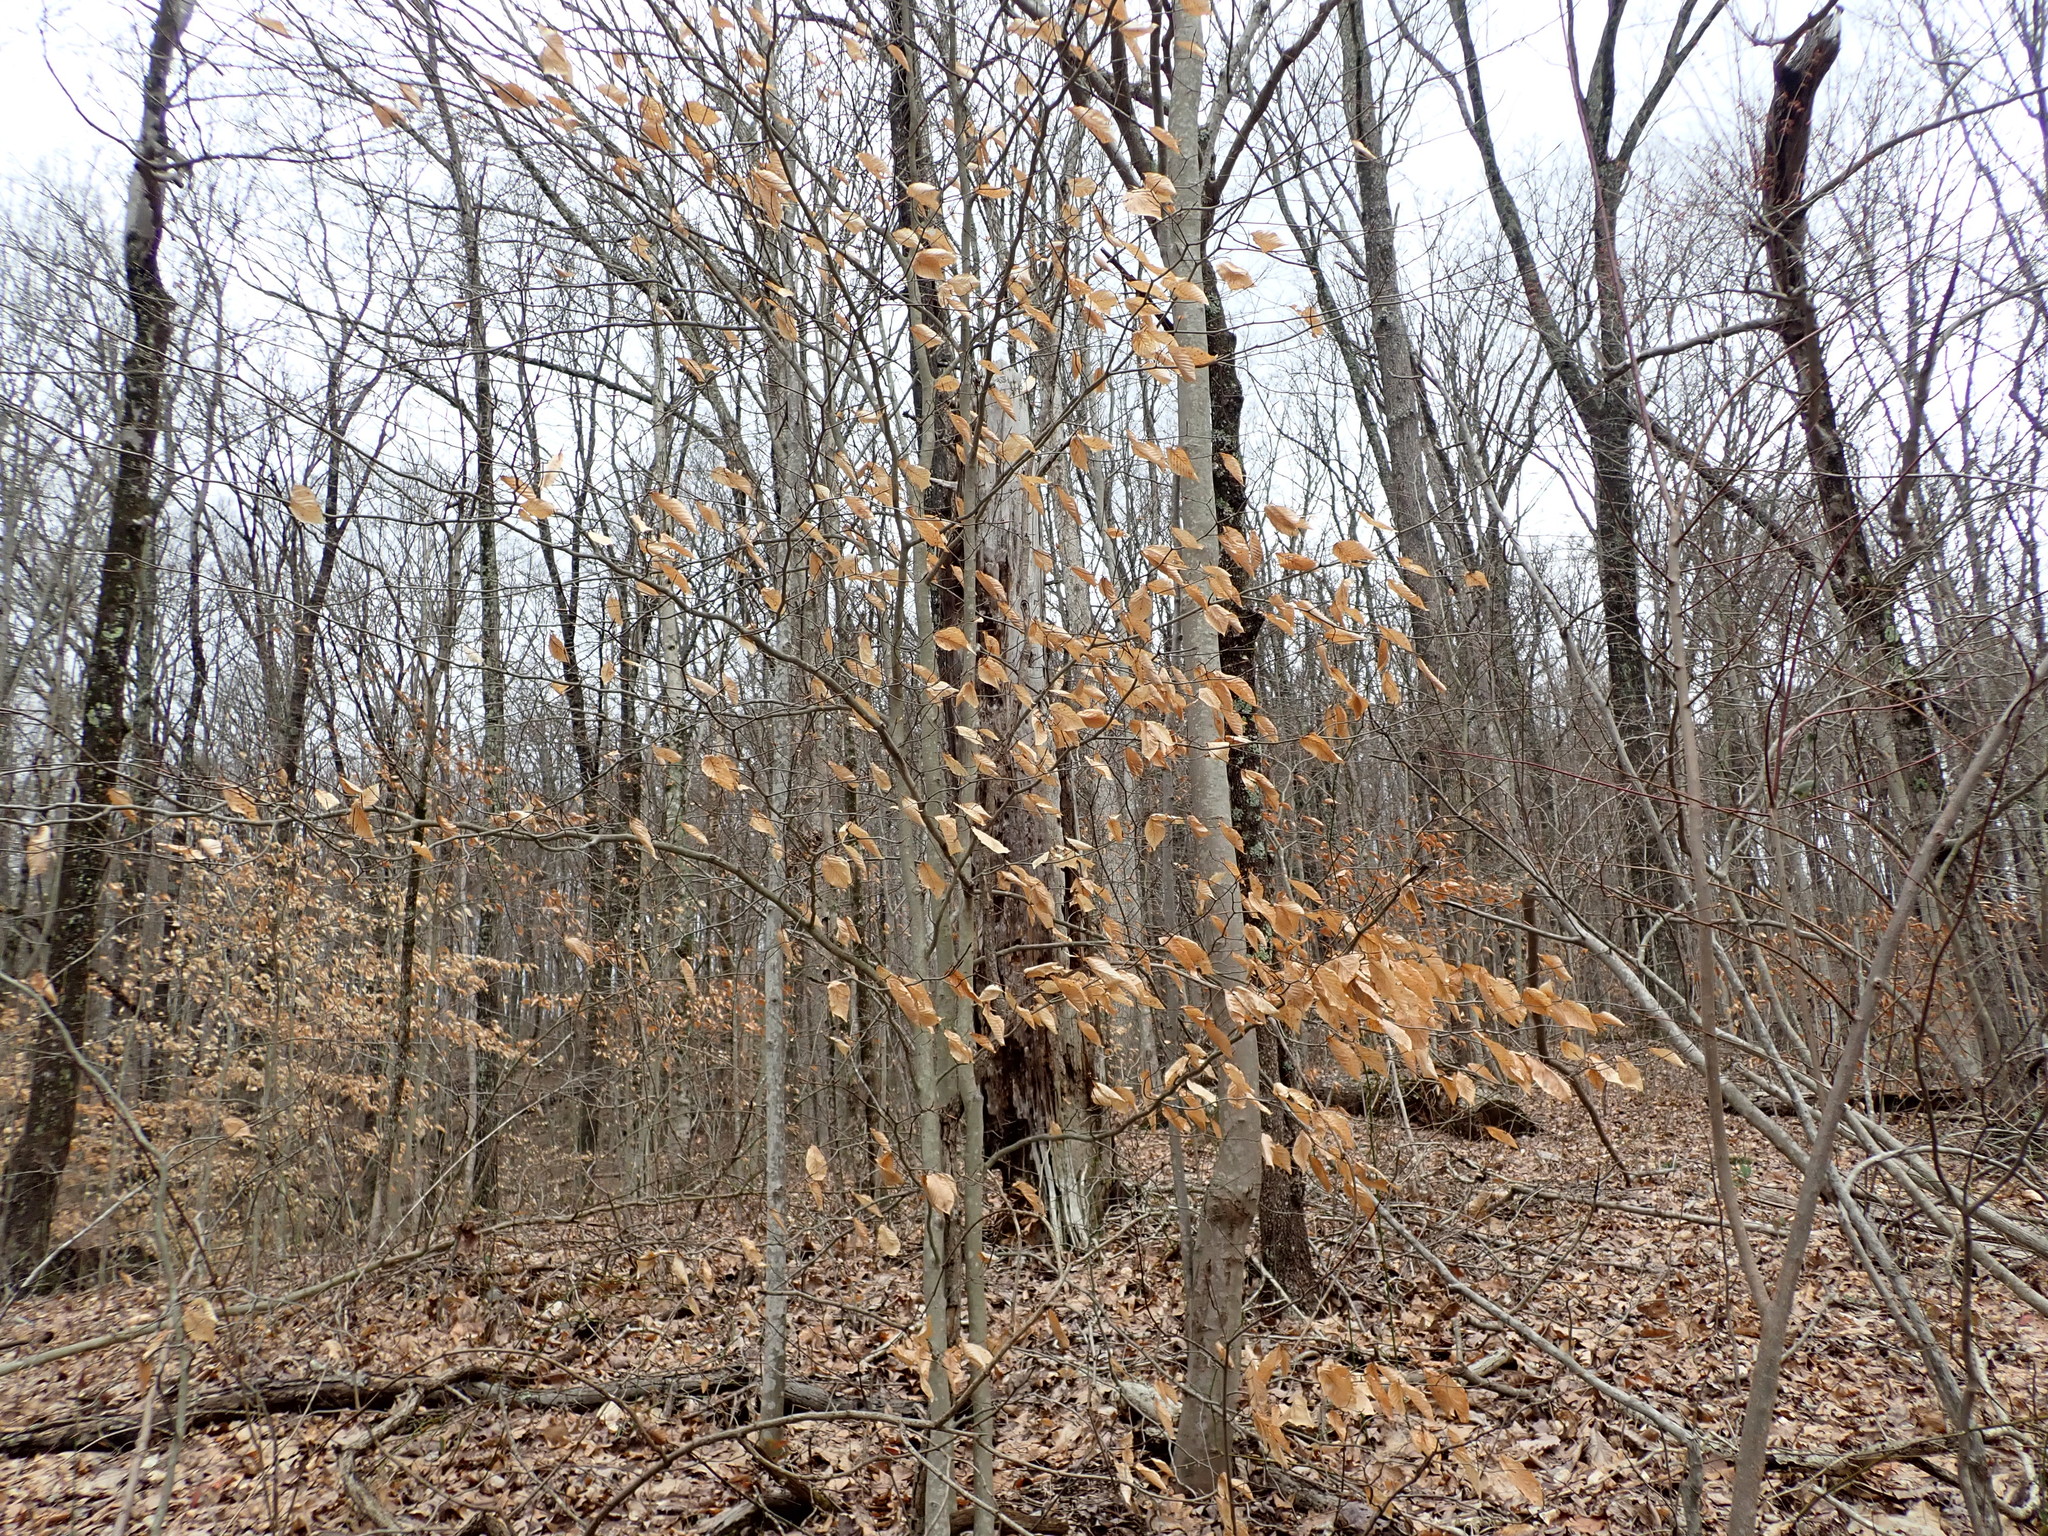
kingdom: Plantae
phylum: Tracheophyta
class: Magnoliopsida
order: Fagales
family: Fagaceae
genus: Fagus
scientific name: Fagus grandifolia
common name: American beech
